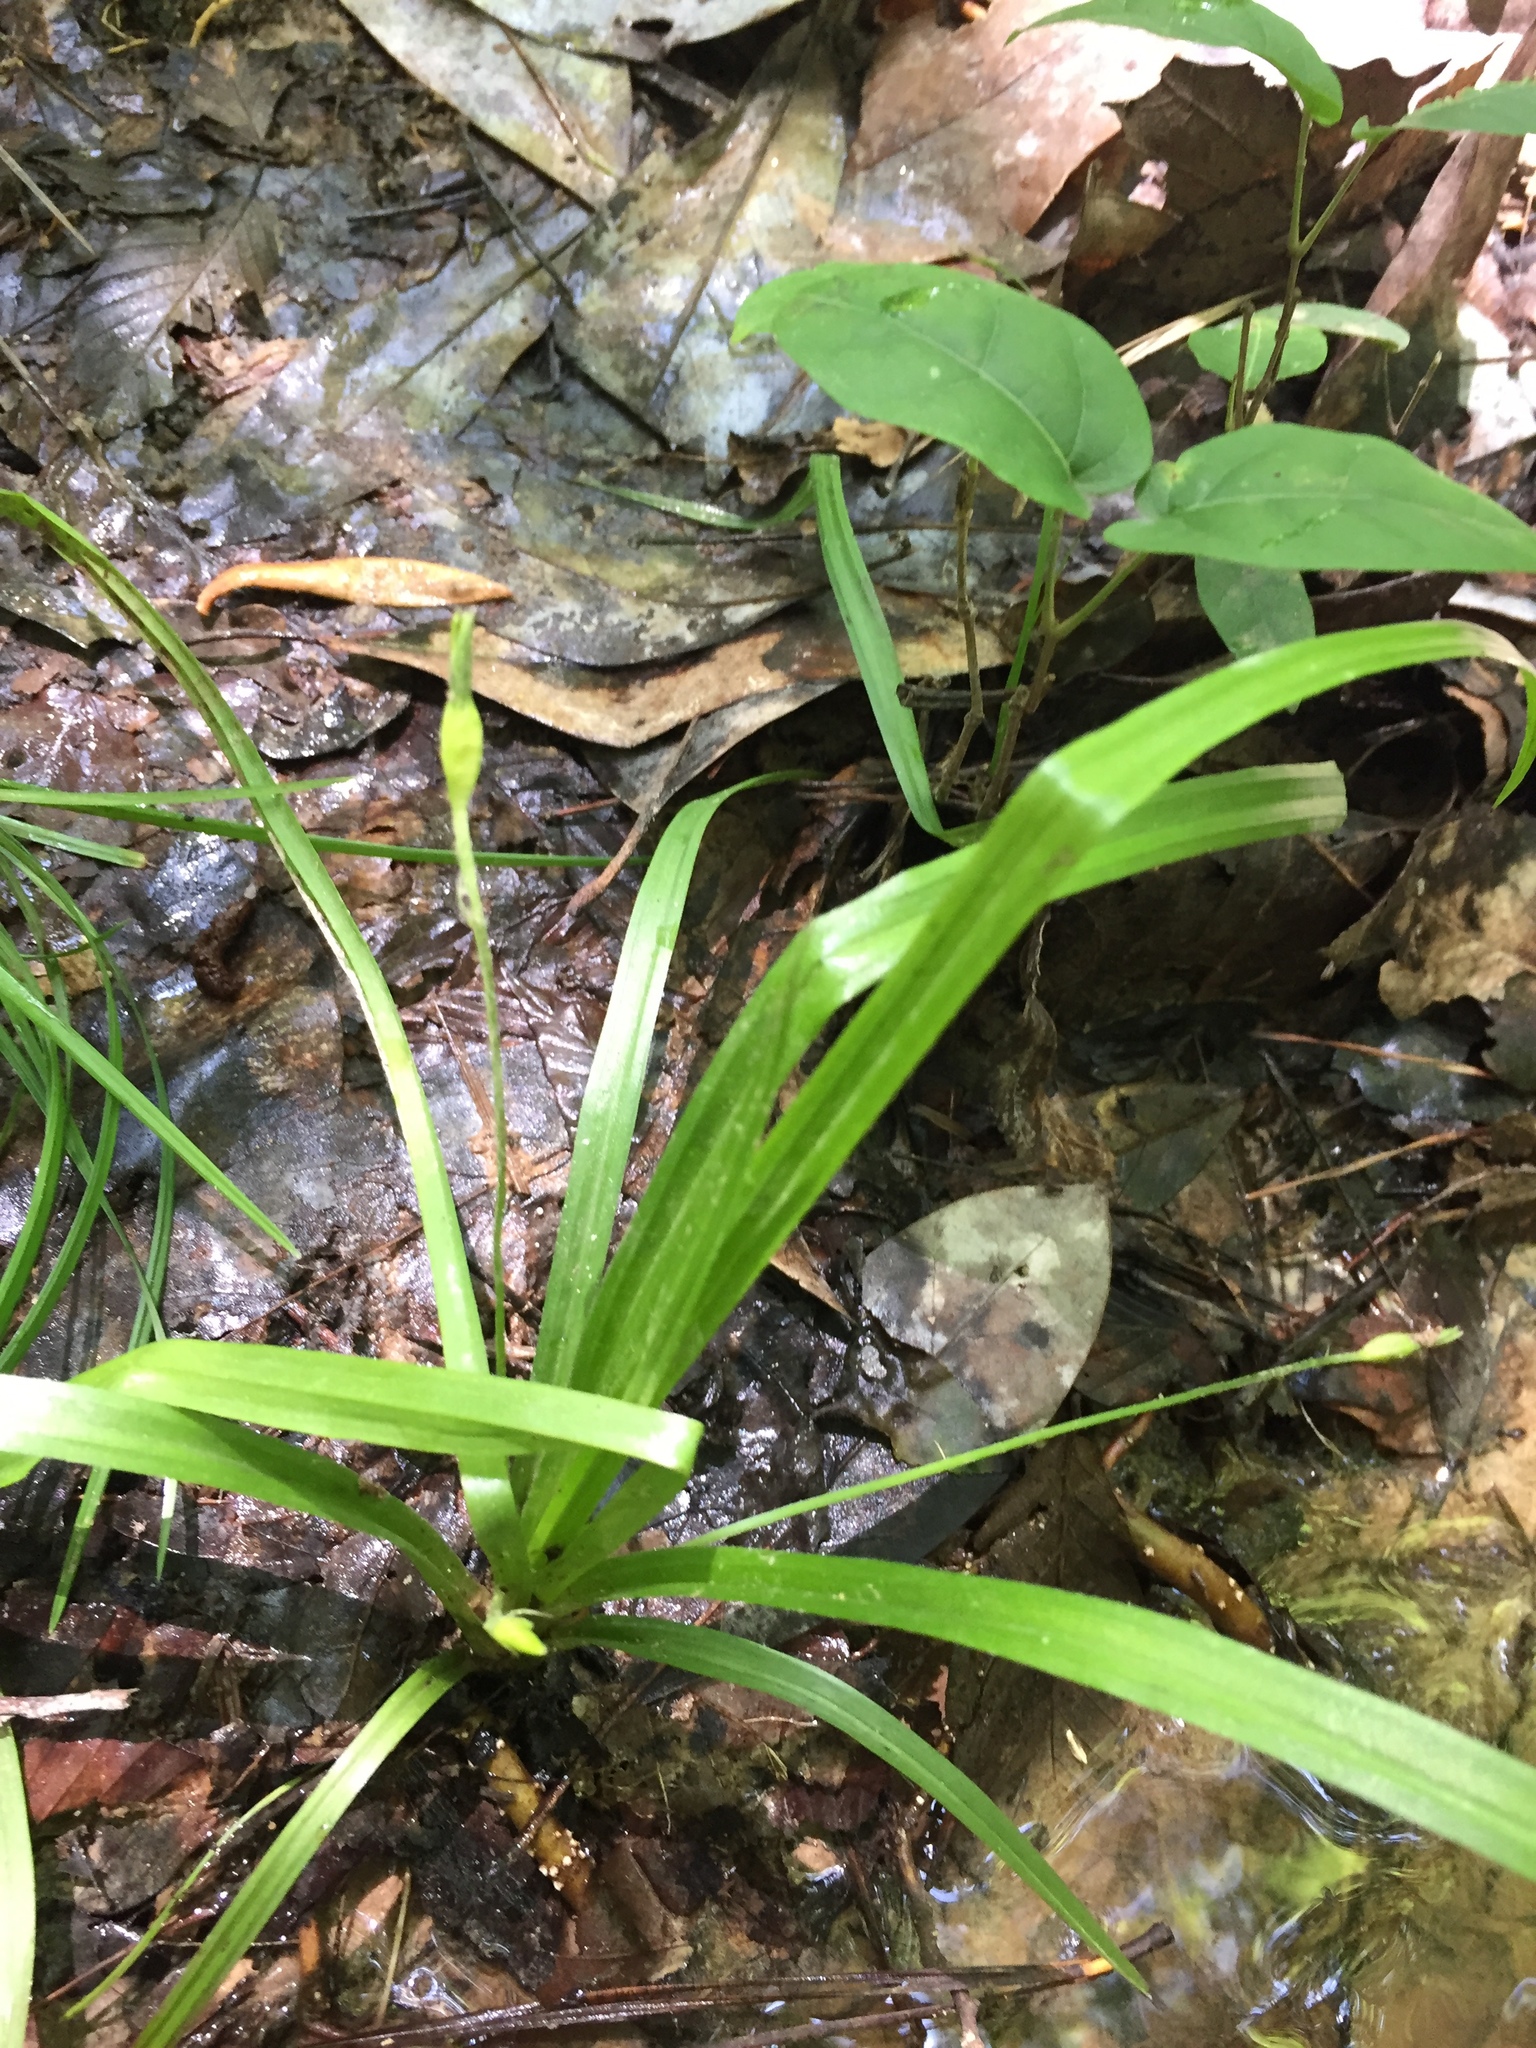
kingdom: Plantae
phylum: Tracheophyta
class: Liliopsida
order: Asparagales
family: Hypoxidaceae
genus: Hypoxis
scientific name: Hypoxis curtissii
